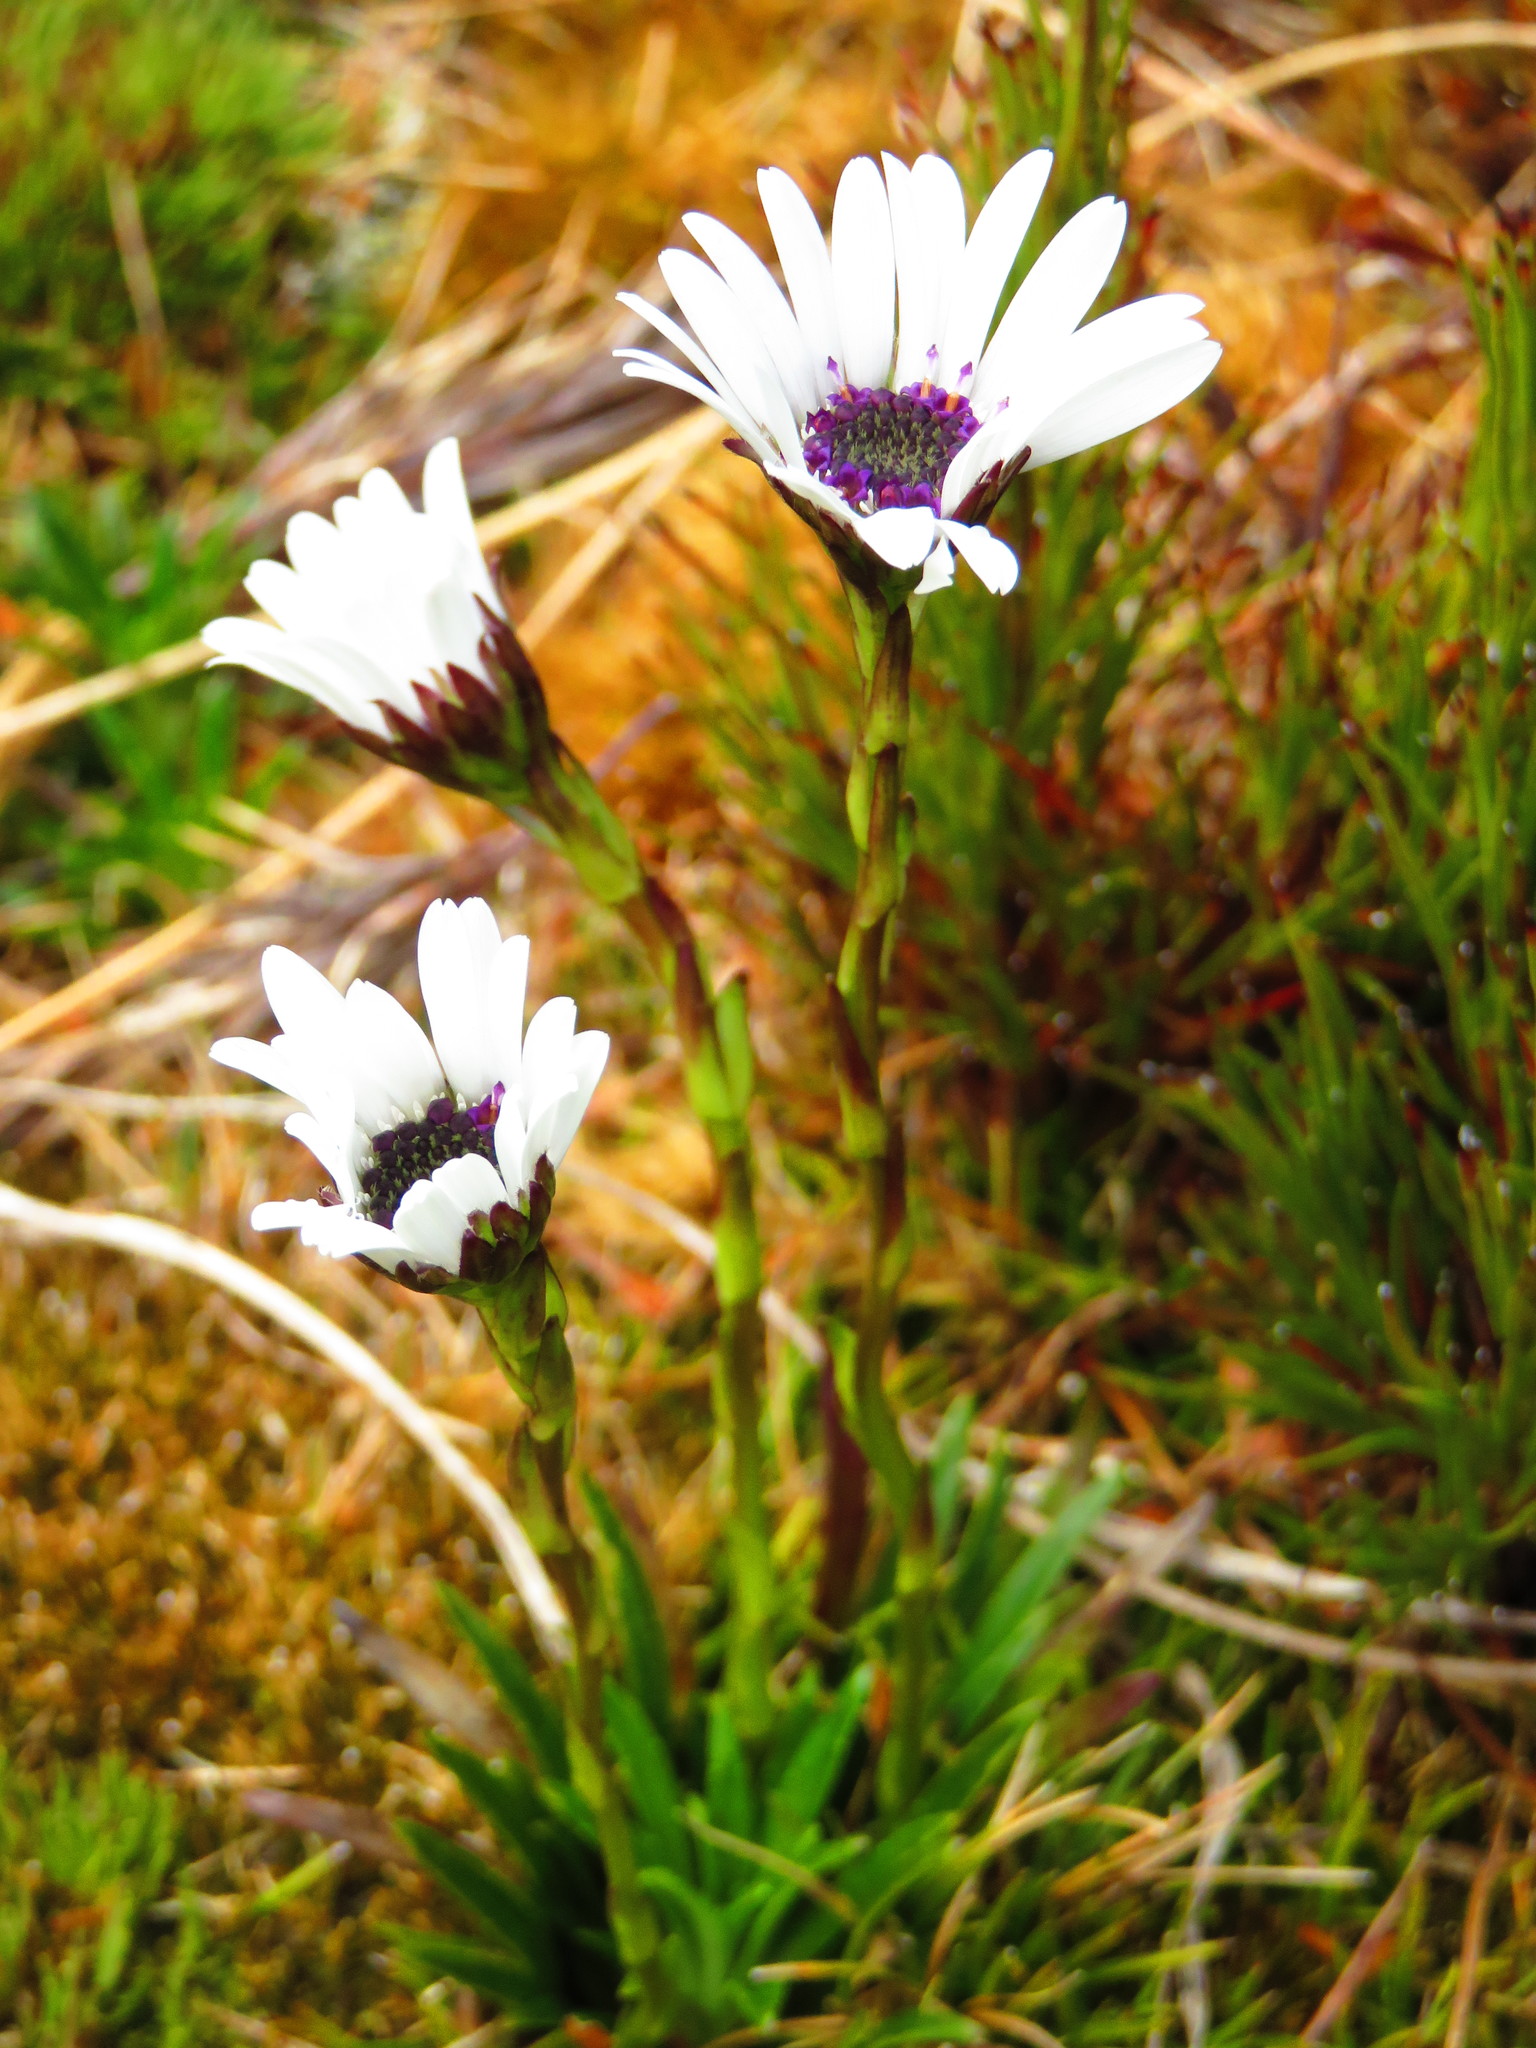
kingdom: Plantae
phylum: Tracheophyta
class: Magnoliopsida
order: Asterales
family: Asteraceae
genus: Damnamenia
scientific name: Damnamenia vernicosa
